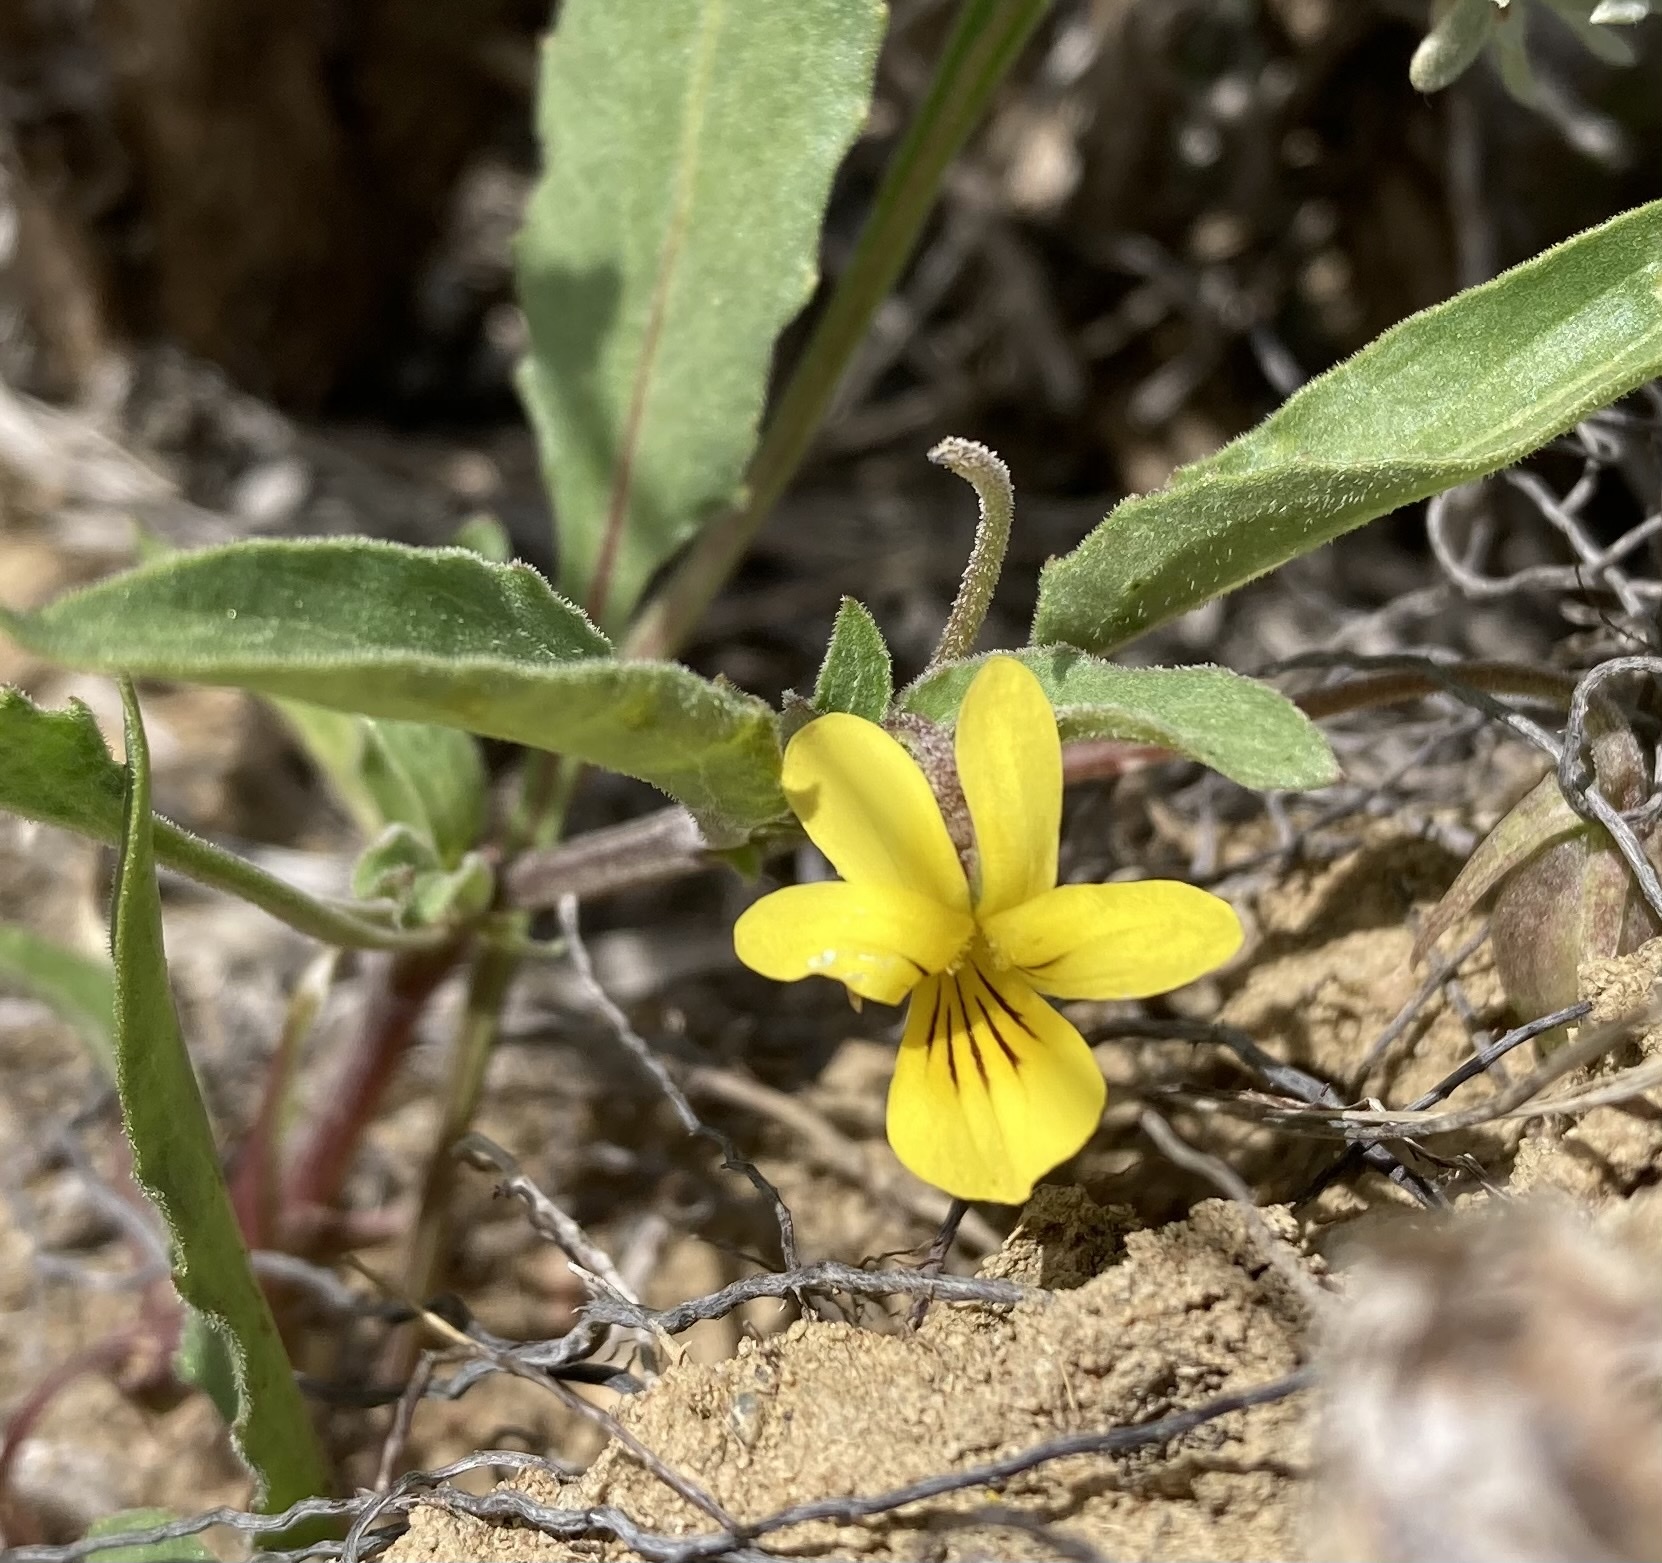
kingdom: Plantae
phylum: Tracheophyta
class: Magnoliopsida
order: Malpighiales
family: Violaceae
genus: Viola
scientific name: Viola nuttallii
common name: Yellow prairie violet
